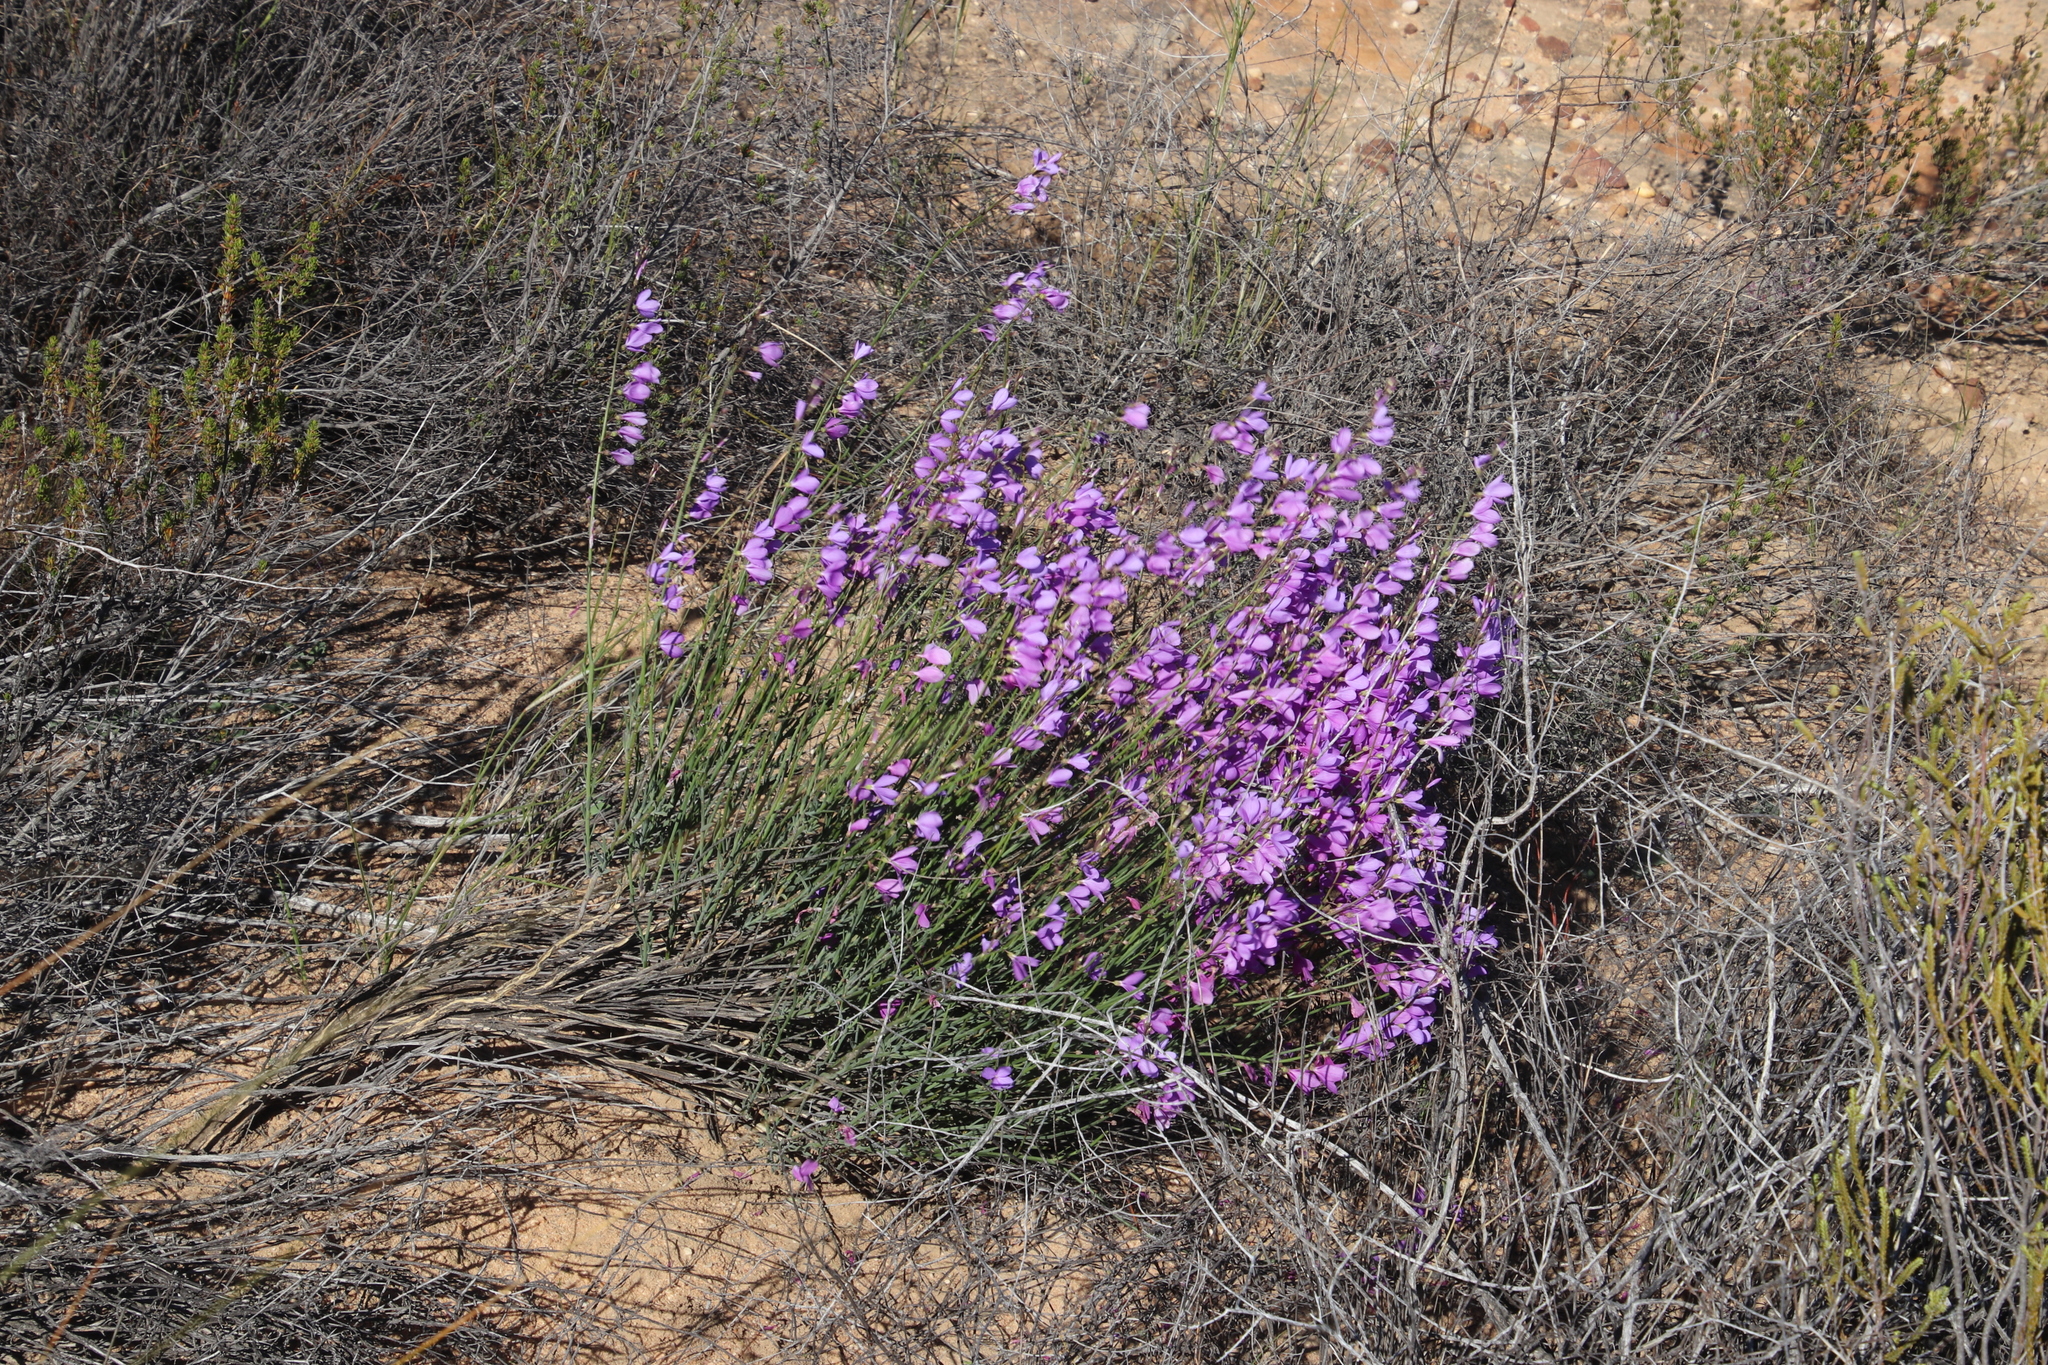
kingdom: Plantae
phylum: Tracheophyta
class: Magnoliopsida
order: Brassicales
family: Brassicaceae
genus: Heliophila
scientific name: Heliophila juncea
